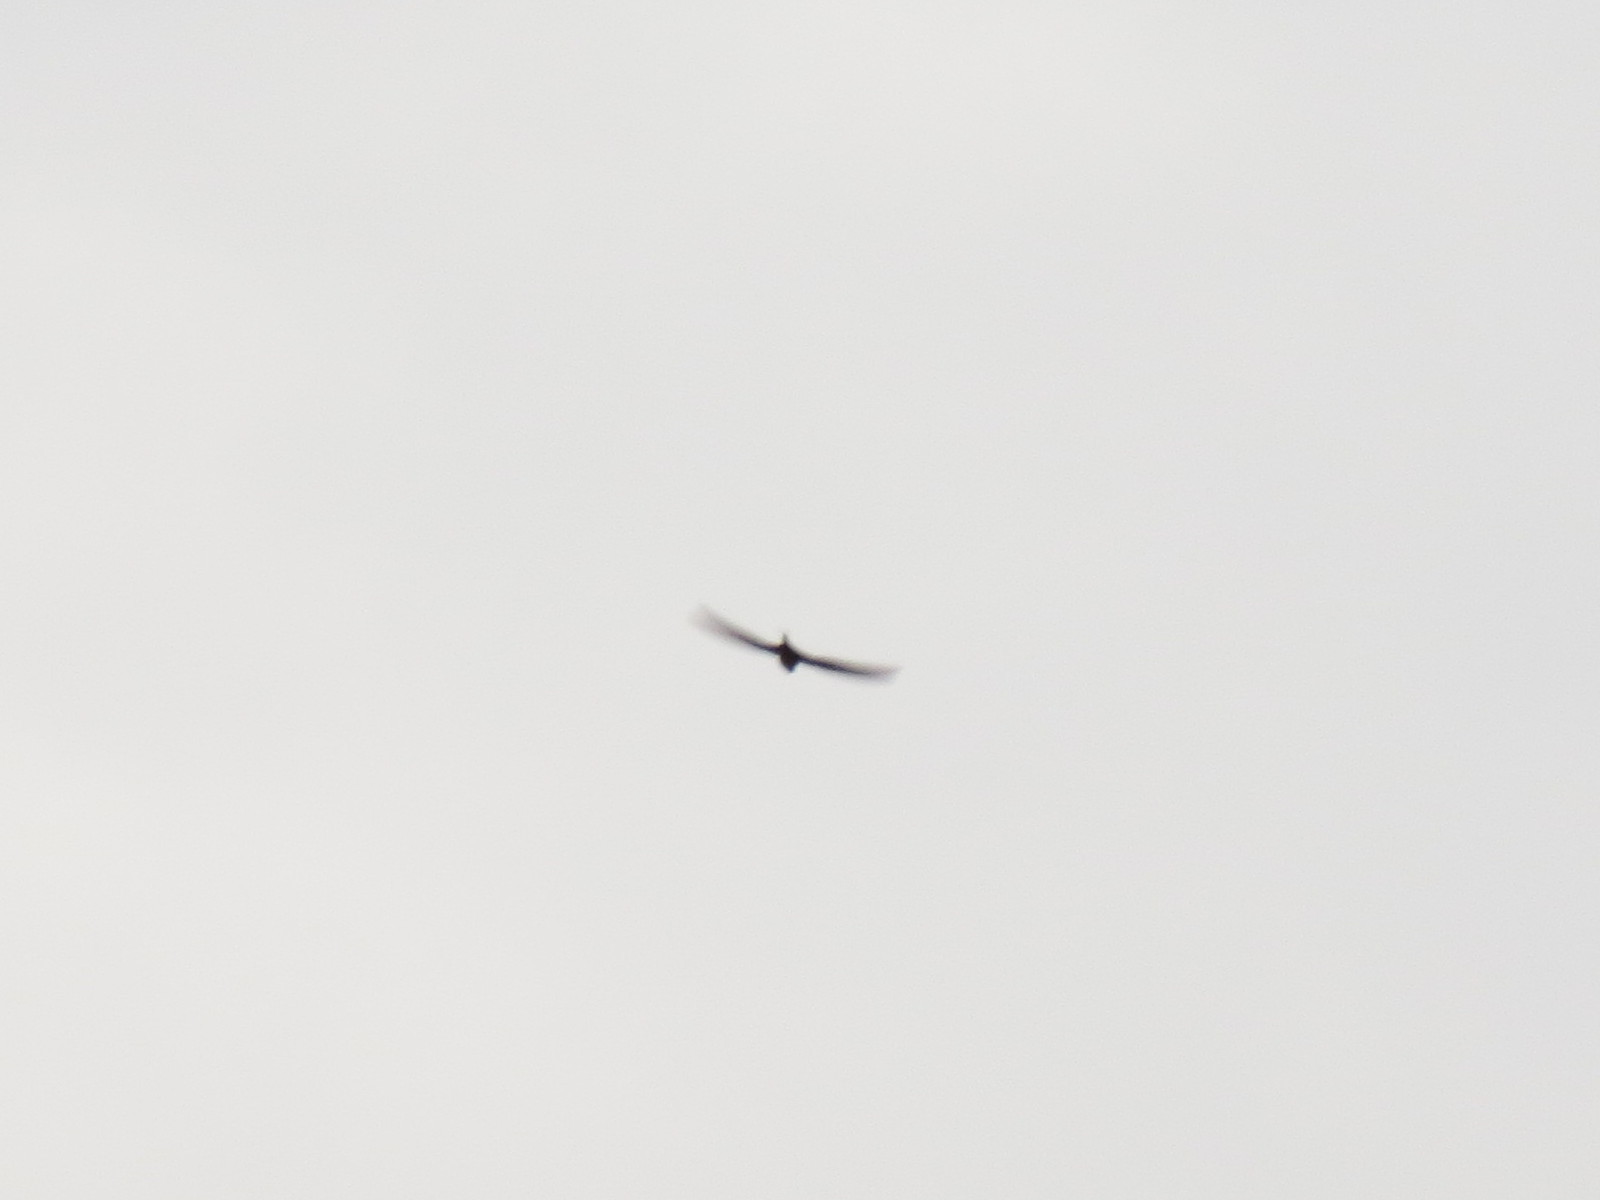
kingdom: Animalia
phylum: Chordata
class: Aves
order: Apodiformes
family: Apodidae
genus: Cypsiurus
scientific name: Cypsiurus parvus
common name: African palm swift
